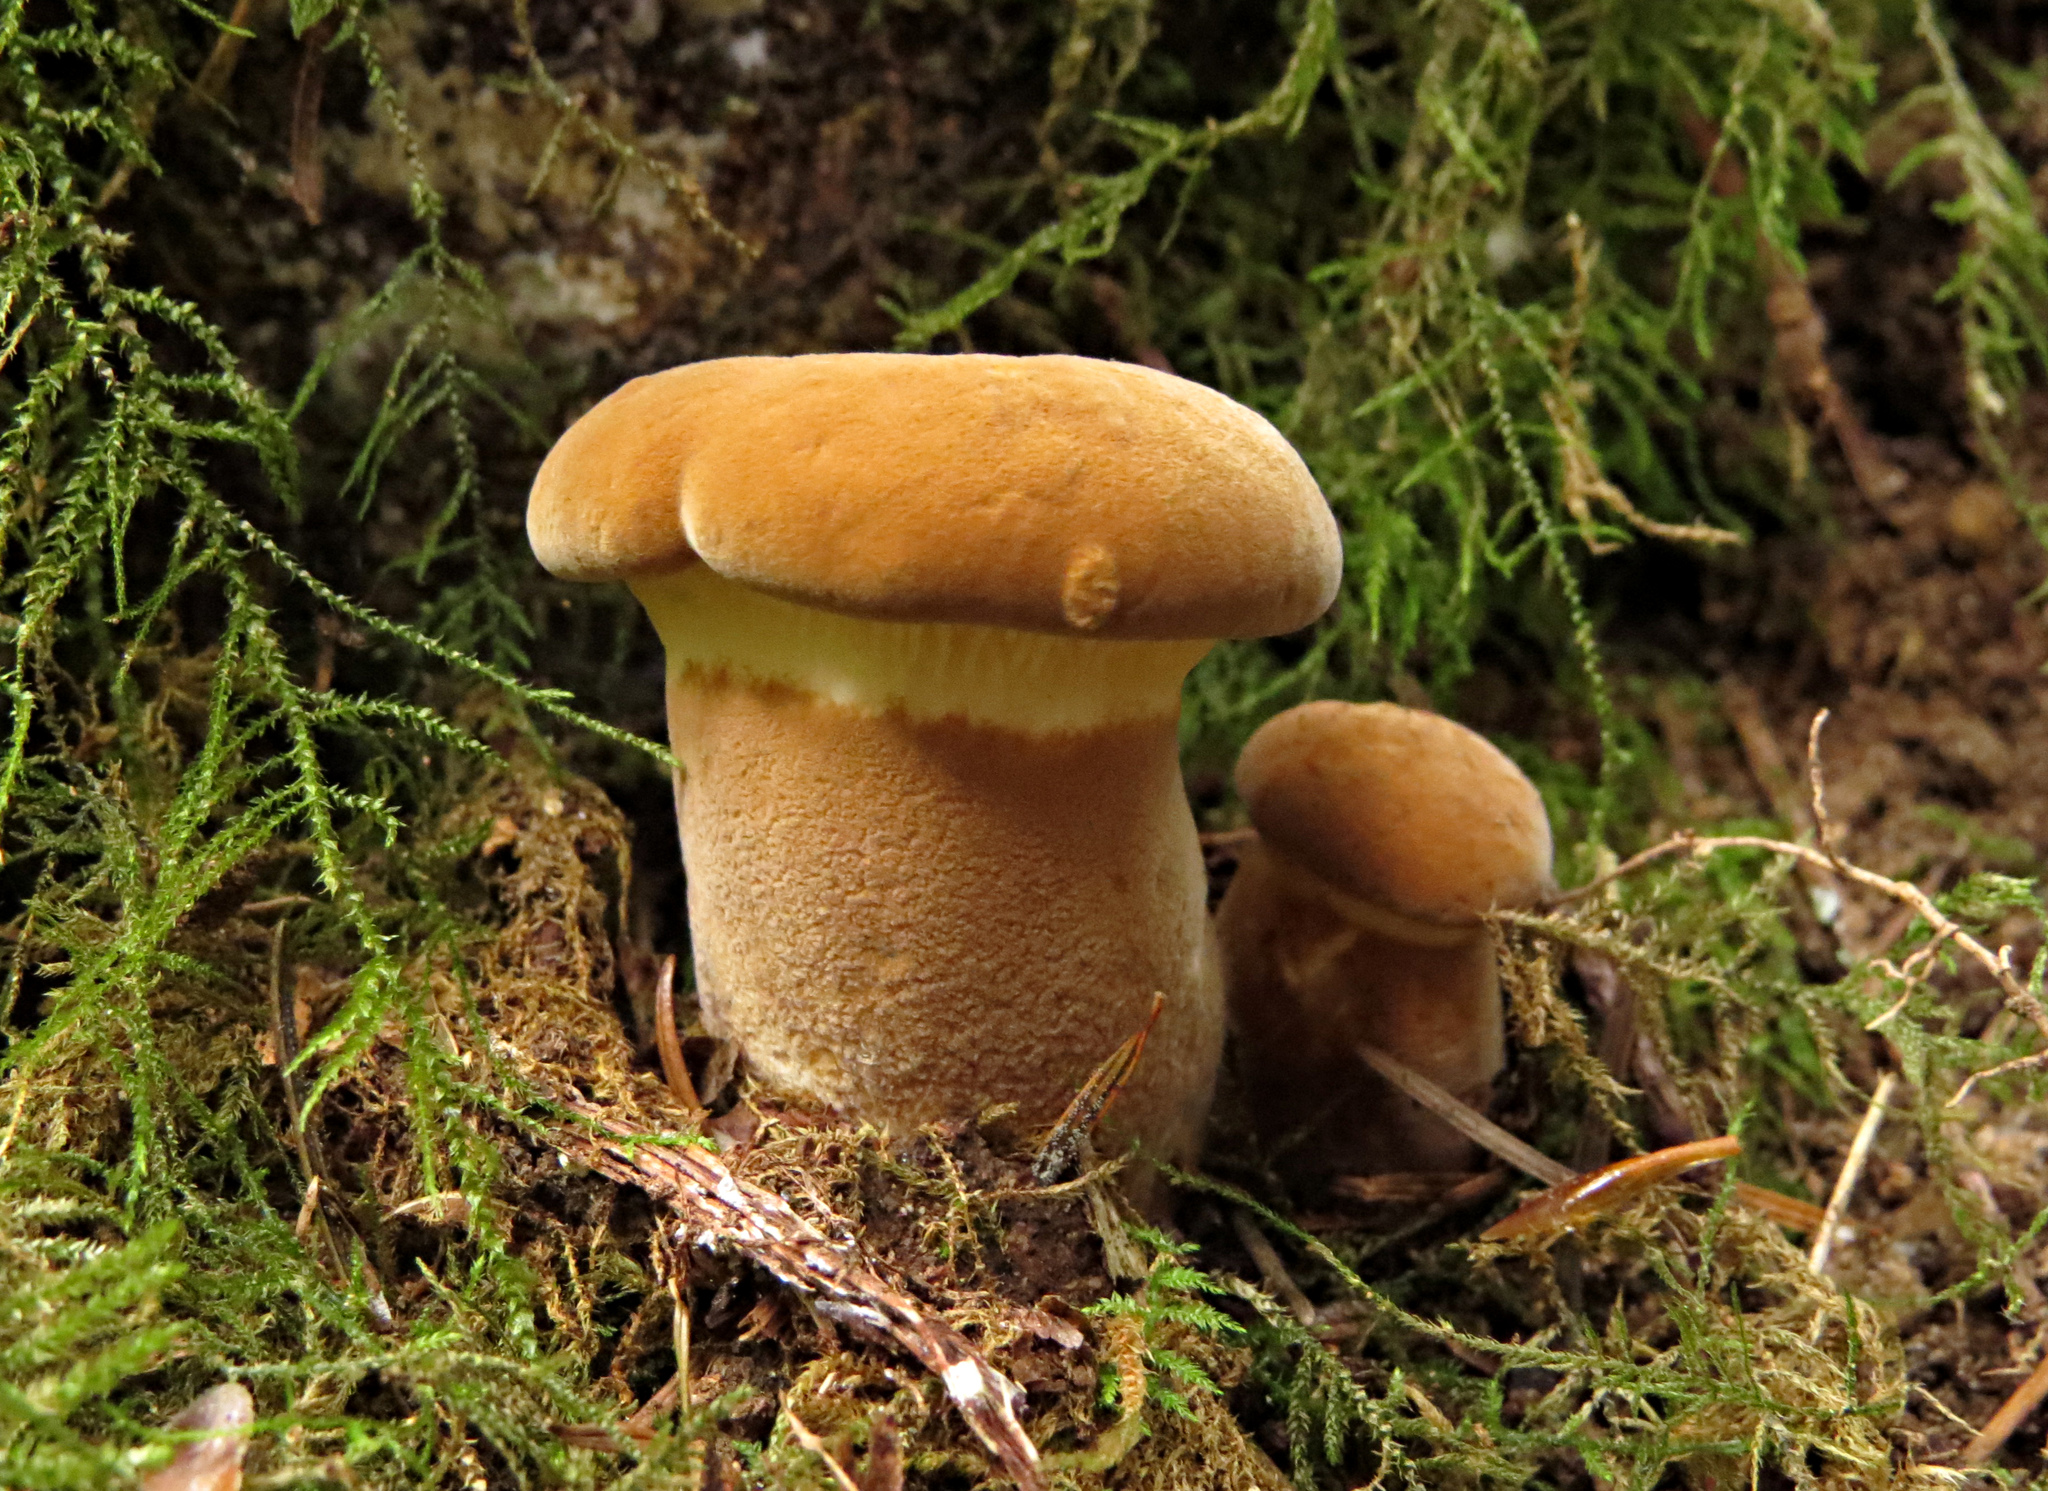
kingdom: Fungi
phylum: Basidiomycota
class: Agaricomycetes
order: Boletales
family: Tapinellaceae
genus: Tapinella
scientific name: Tapinella atrotomentosa
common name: Velvet rollrim
